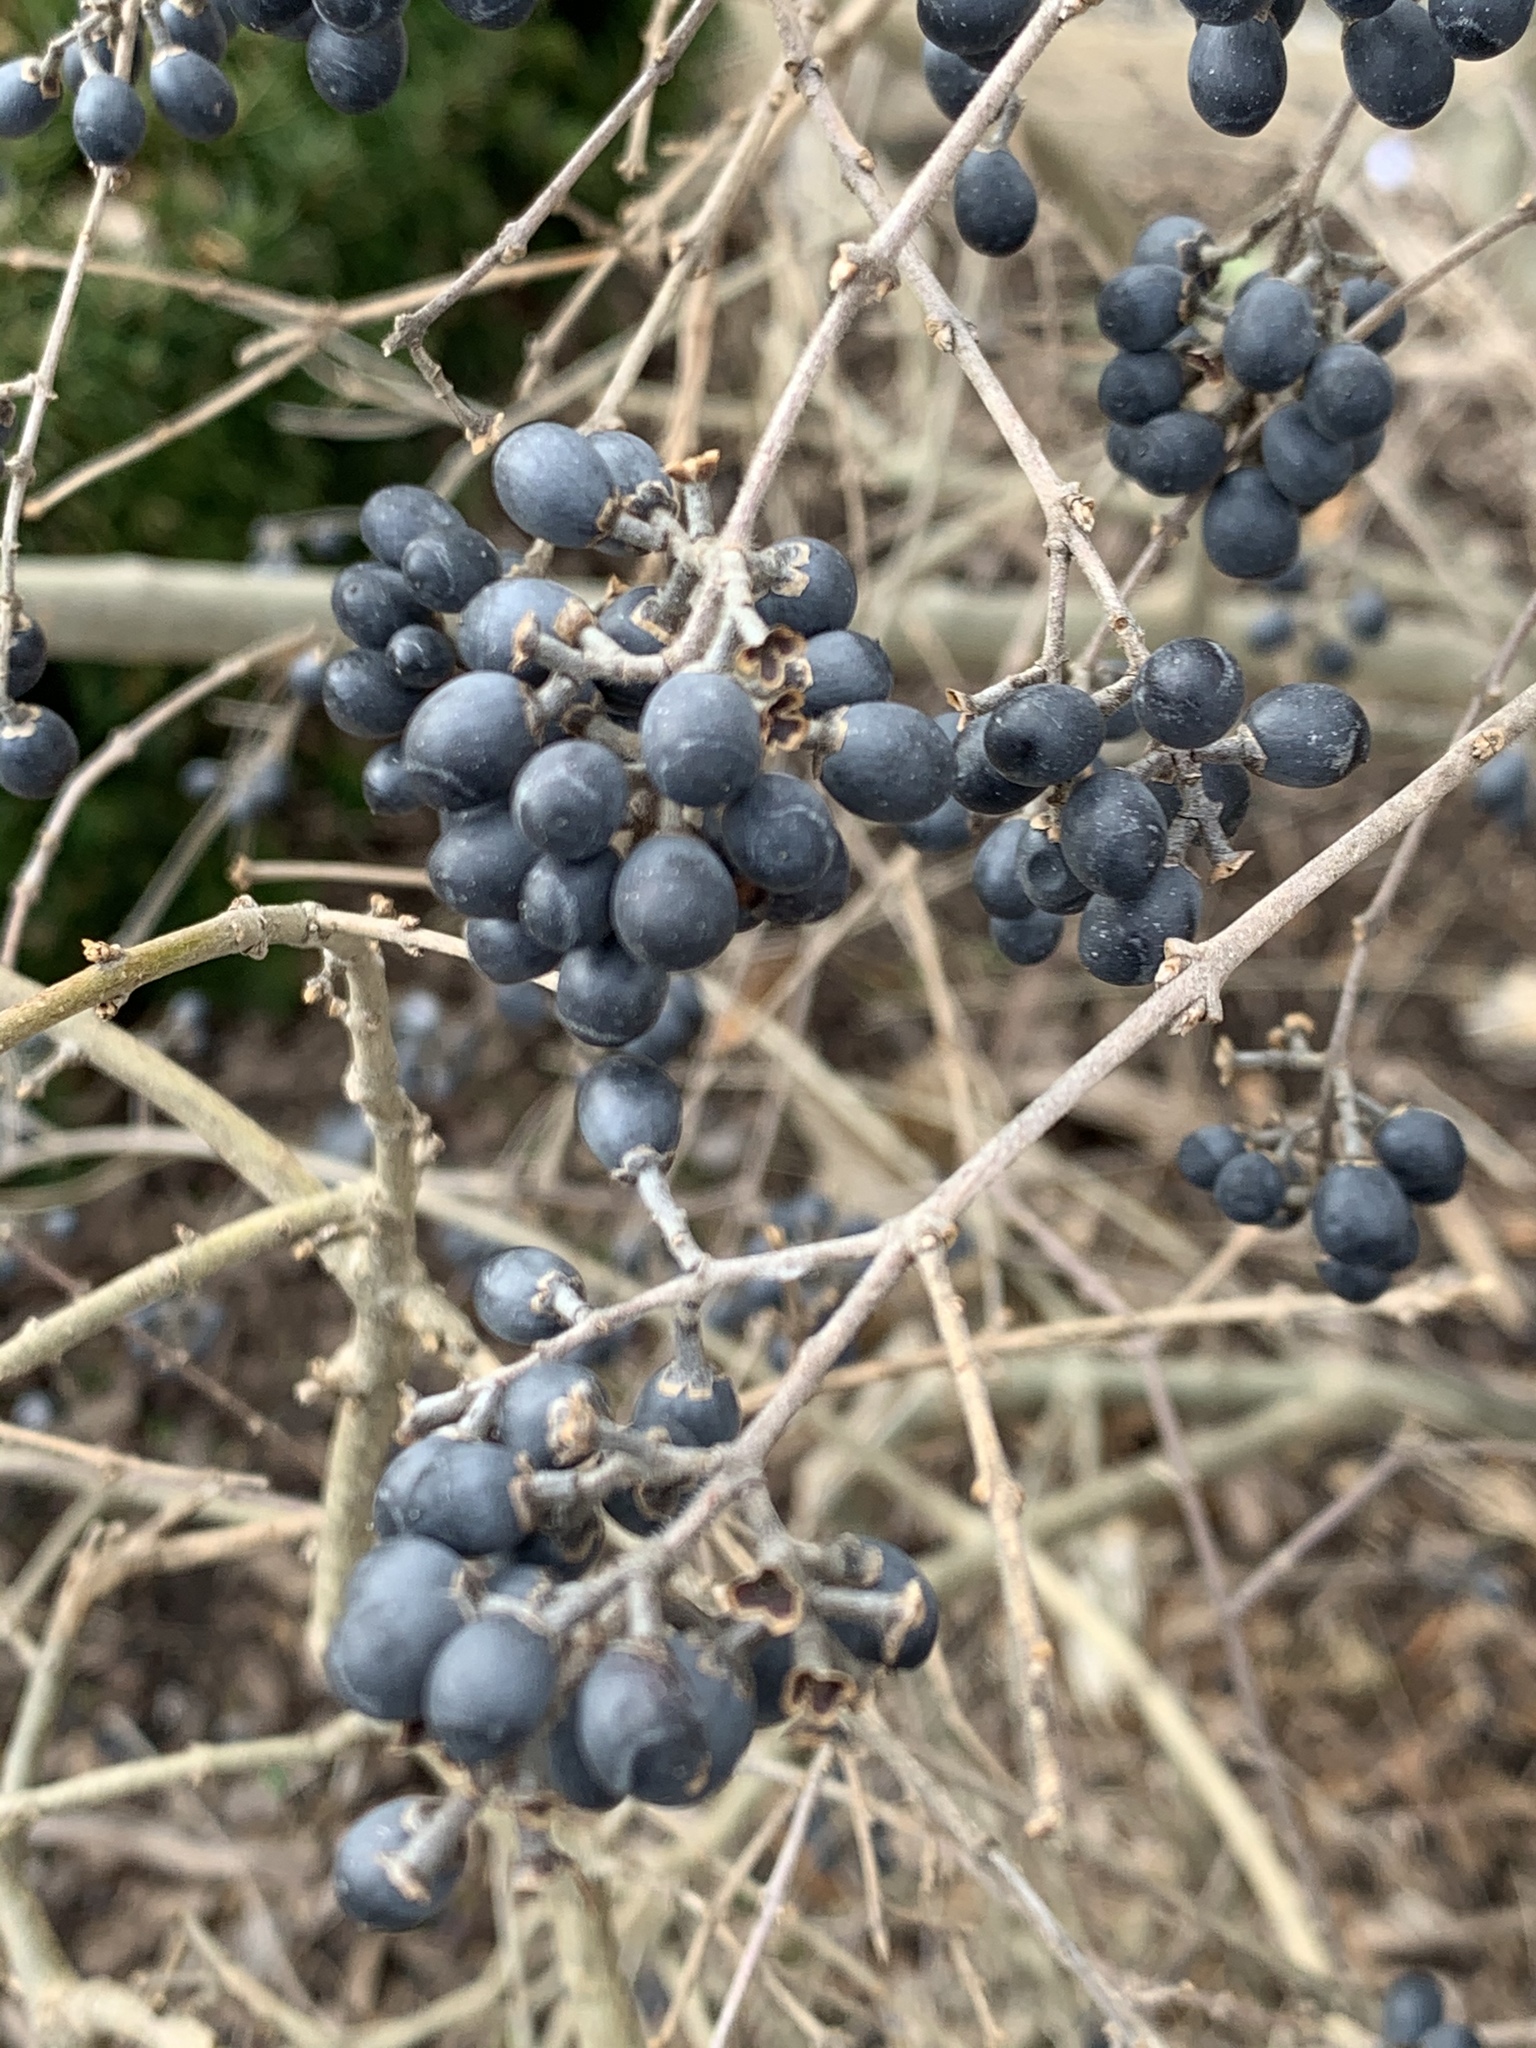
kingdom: Plantae
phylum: Tracheophyta
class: Magnoliopsida
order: Lamiales
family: Oleaceae
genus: Ligustrum
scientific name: Ligustrum obtusifolium
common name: Border privet
